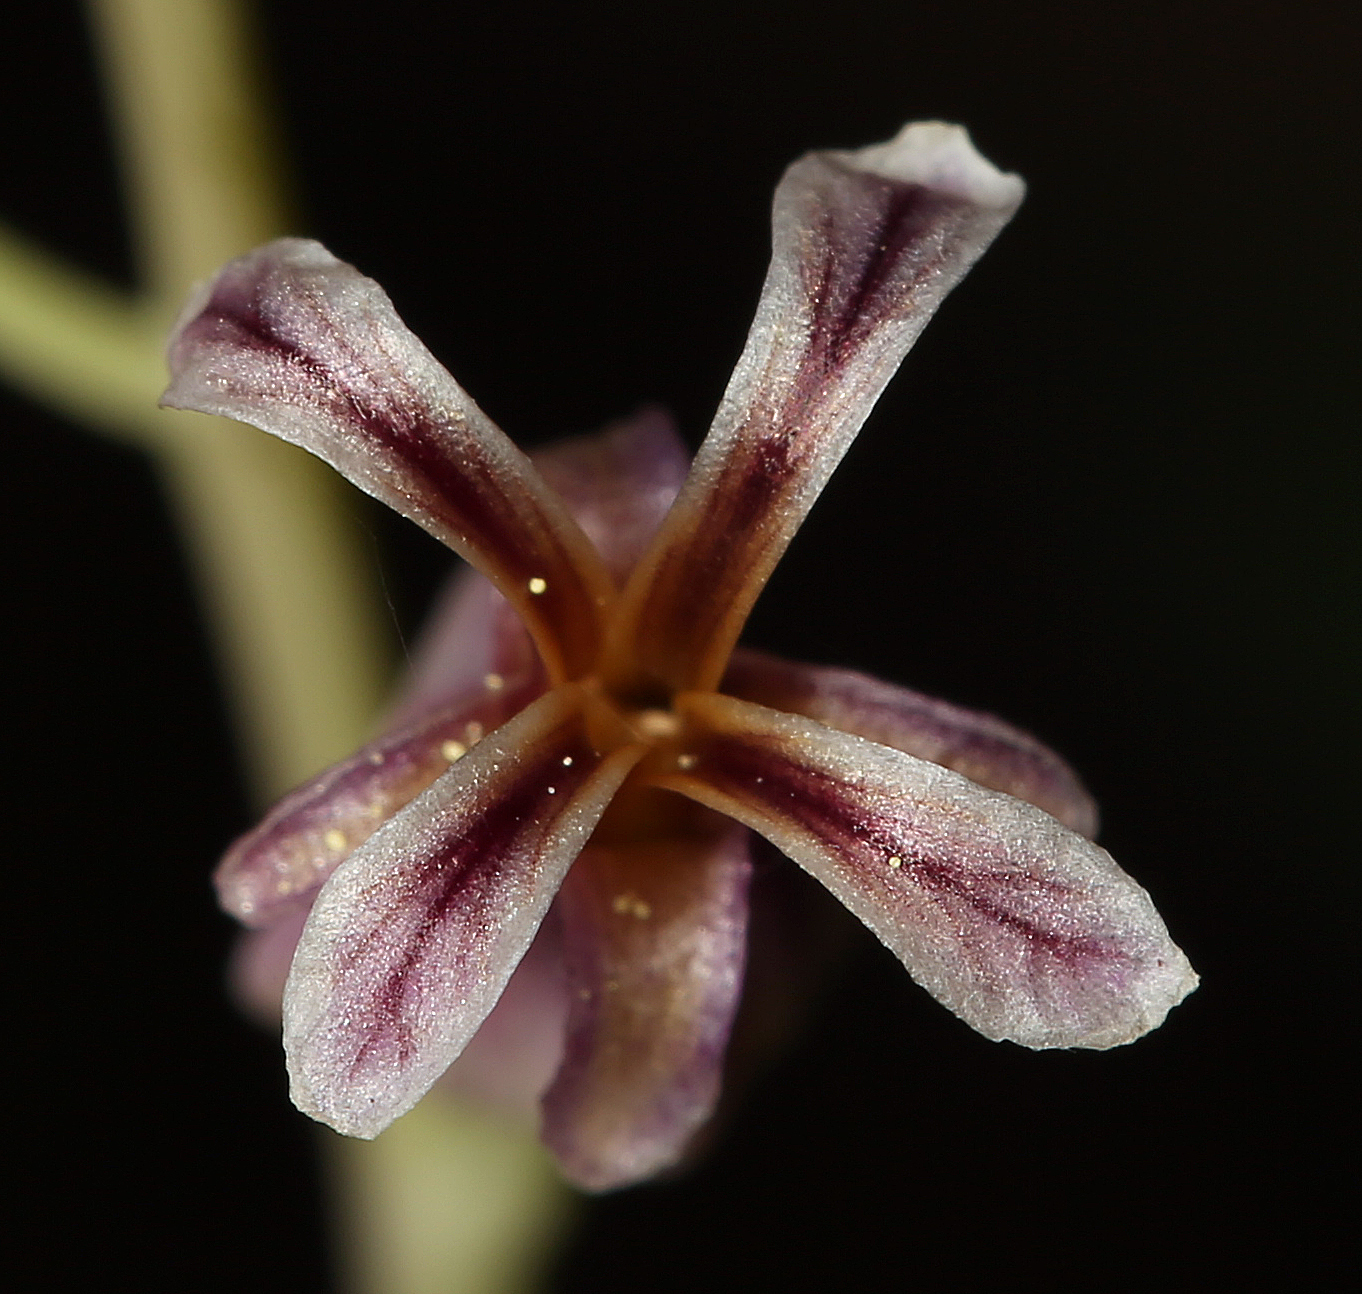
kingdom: Plantae
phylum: Tracheophyta
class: Magnoliopsida
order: Brassicales
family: Brassicaceae
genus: Streptanthus
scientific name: Streptanthus cordatus
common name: Heart-leaf jewel-flower
